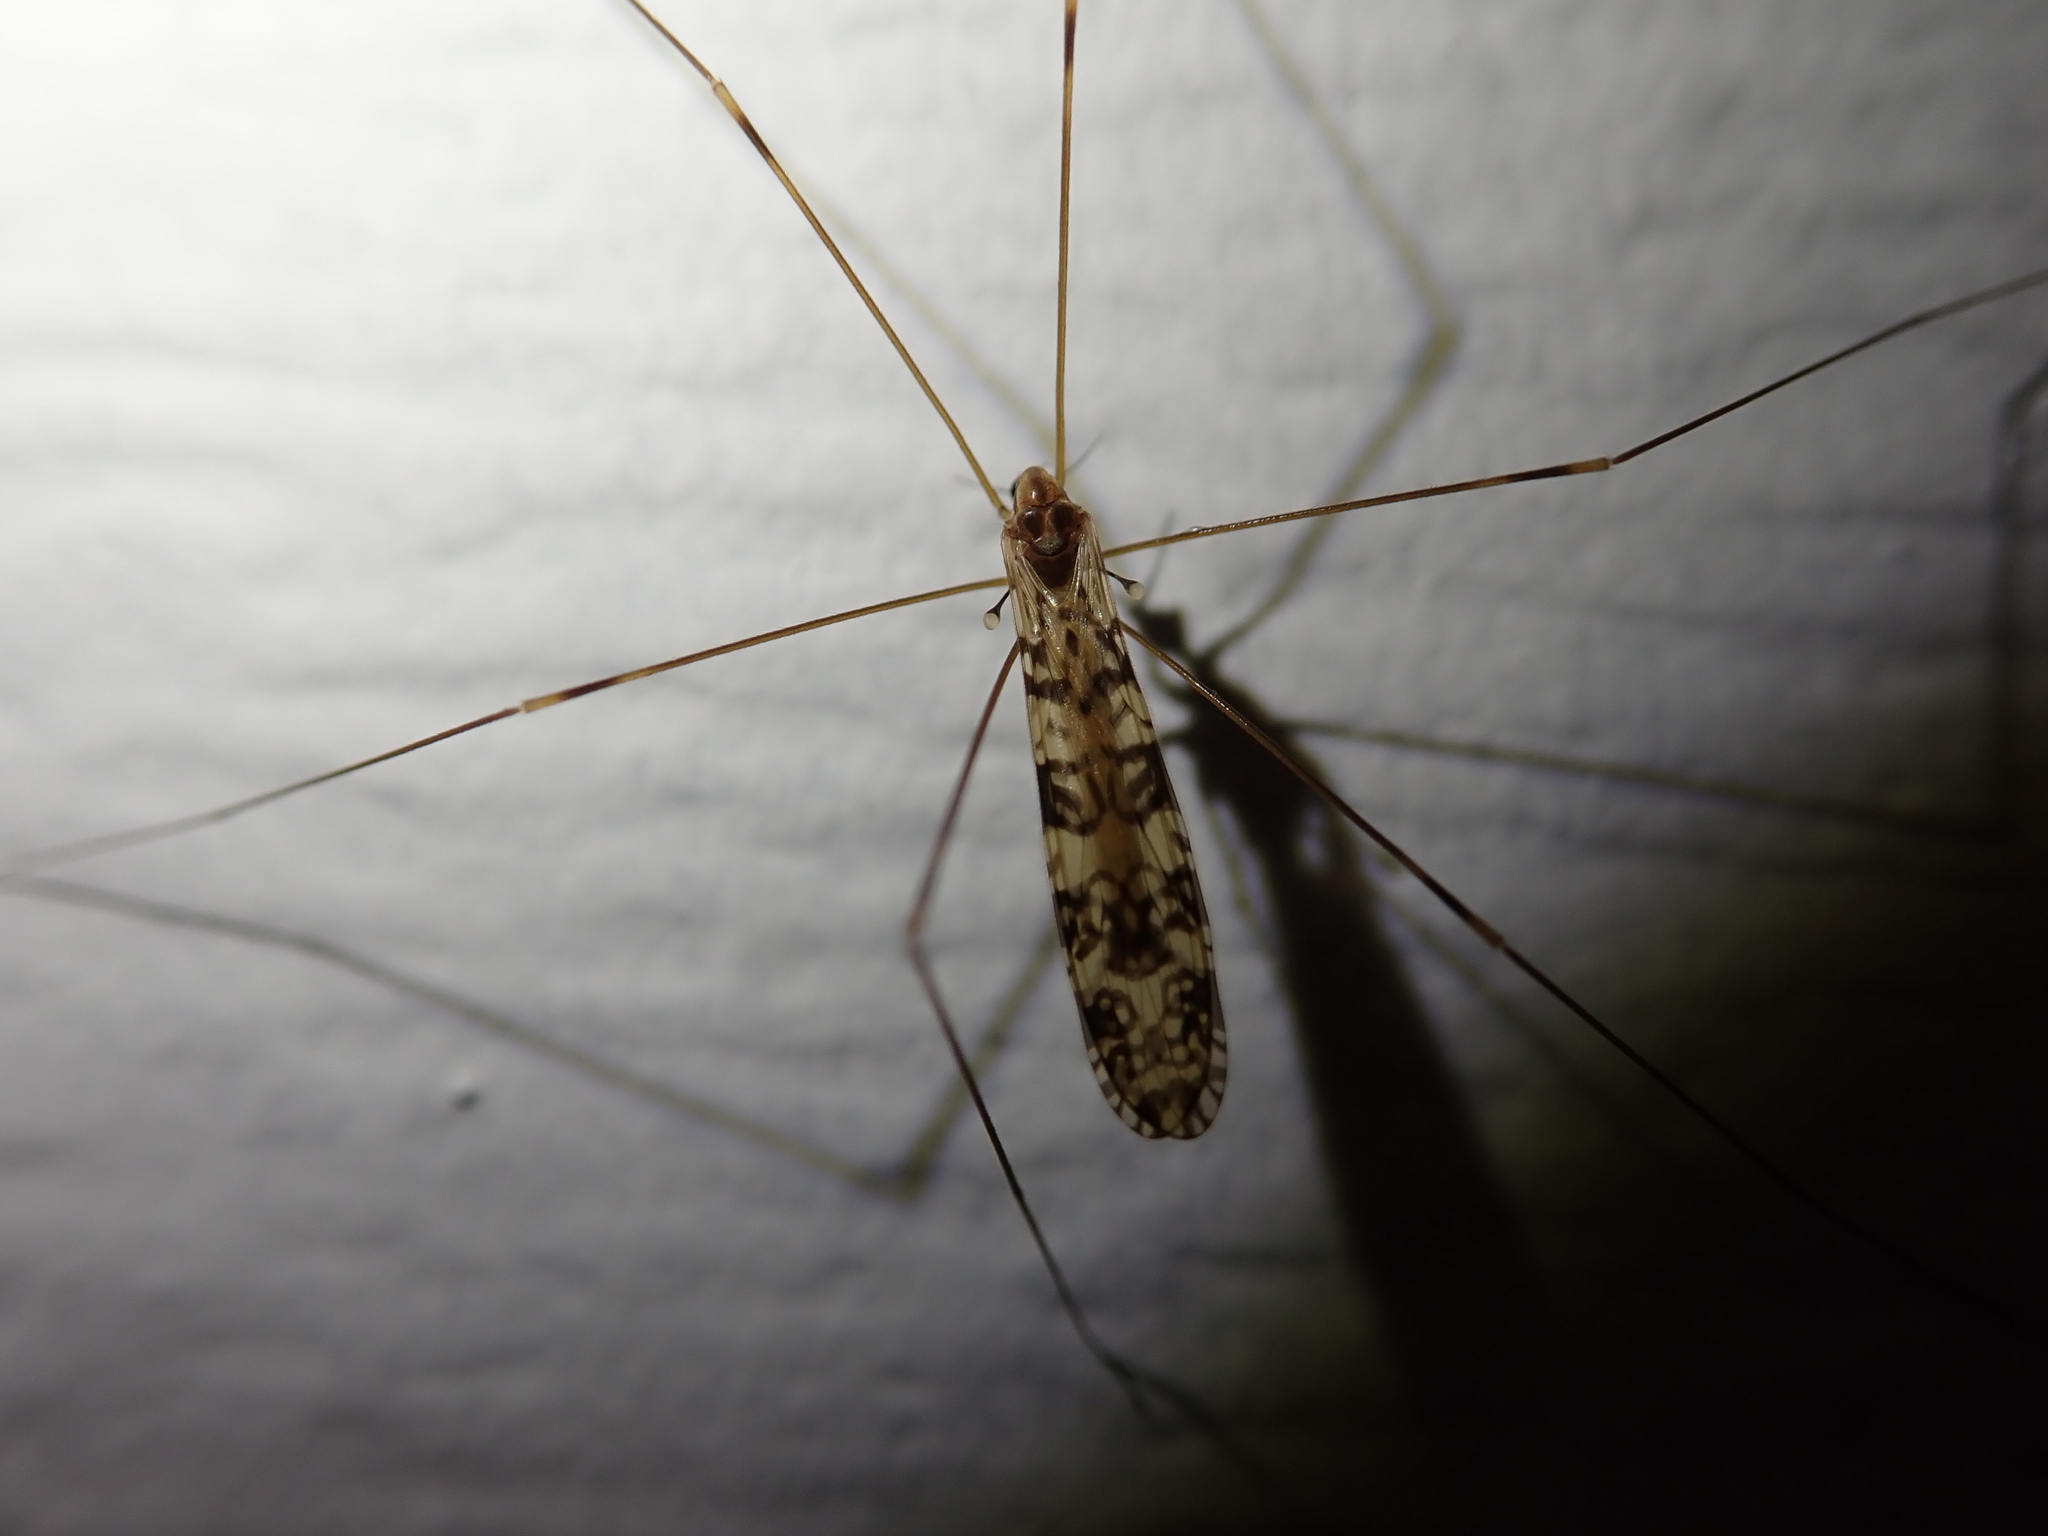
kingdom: Animalia
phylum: Arthropoda
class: Insecta
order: Diptera
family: Limoniidae
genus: Limonia
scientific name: Limonia annulata
